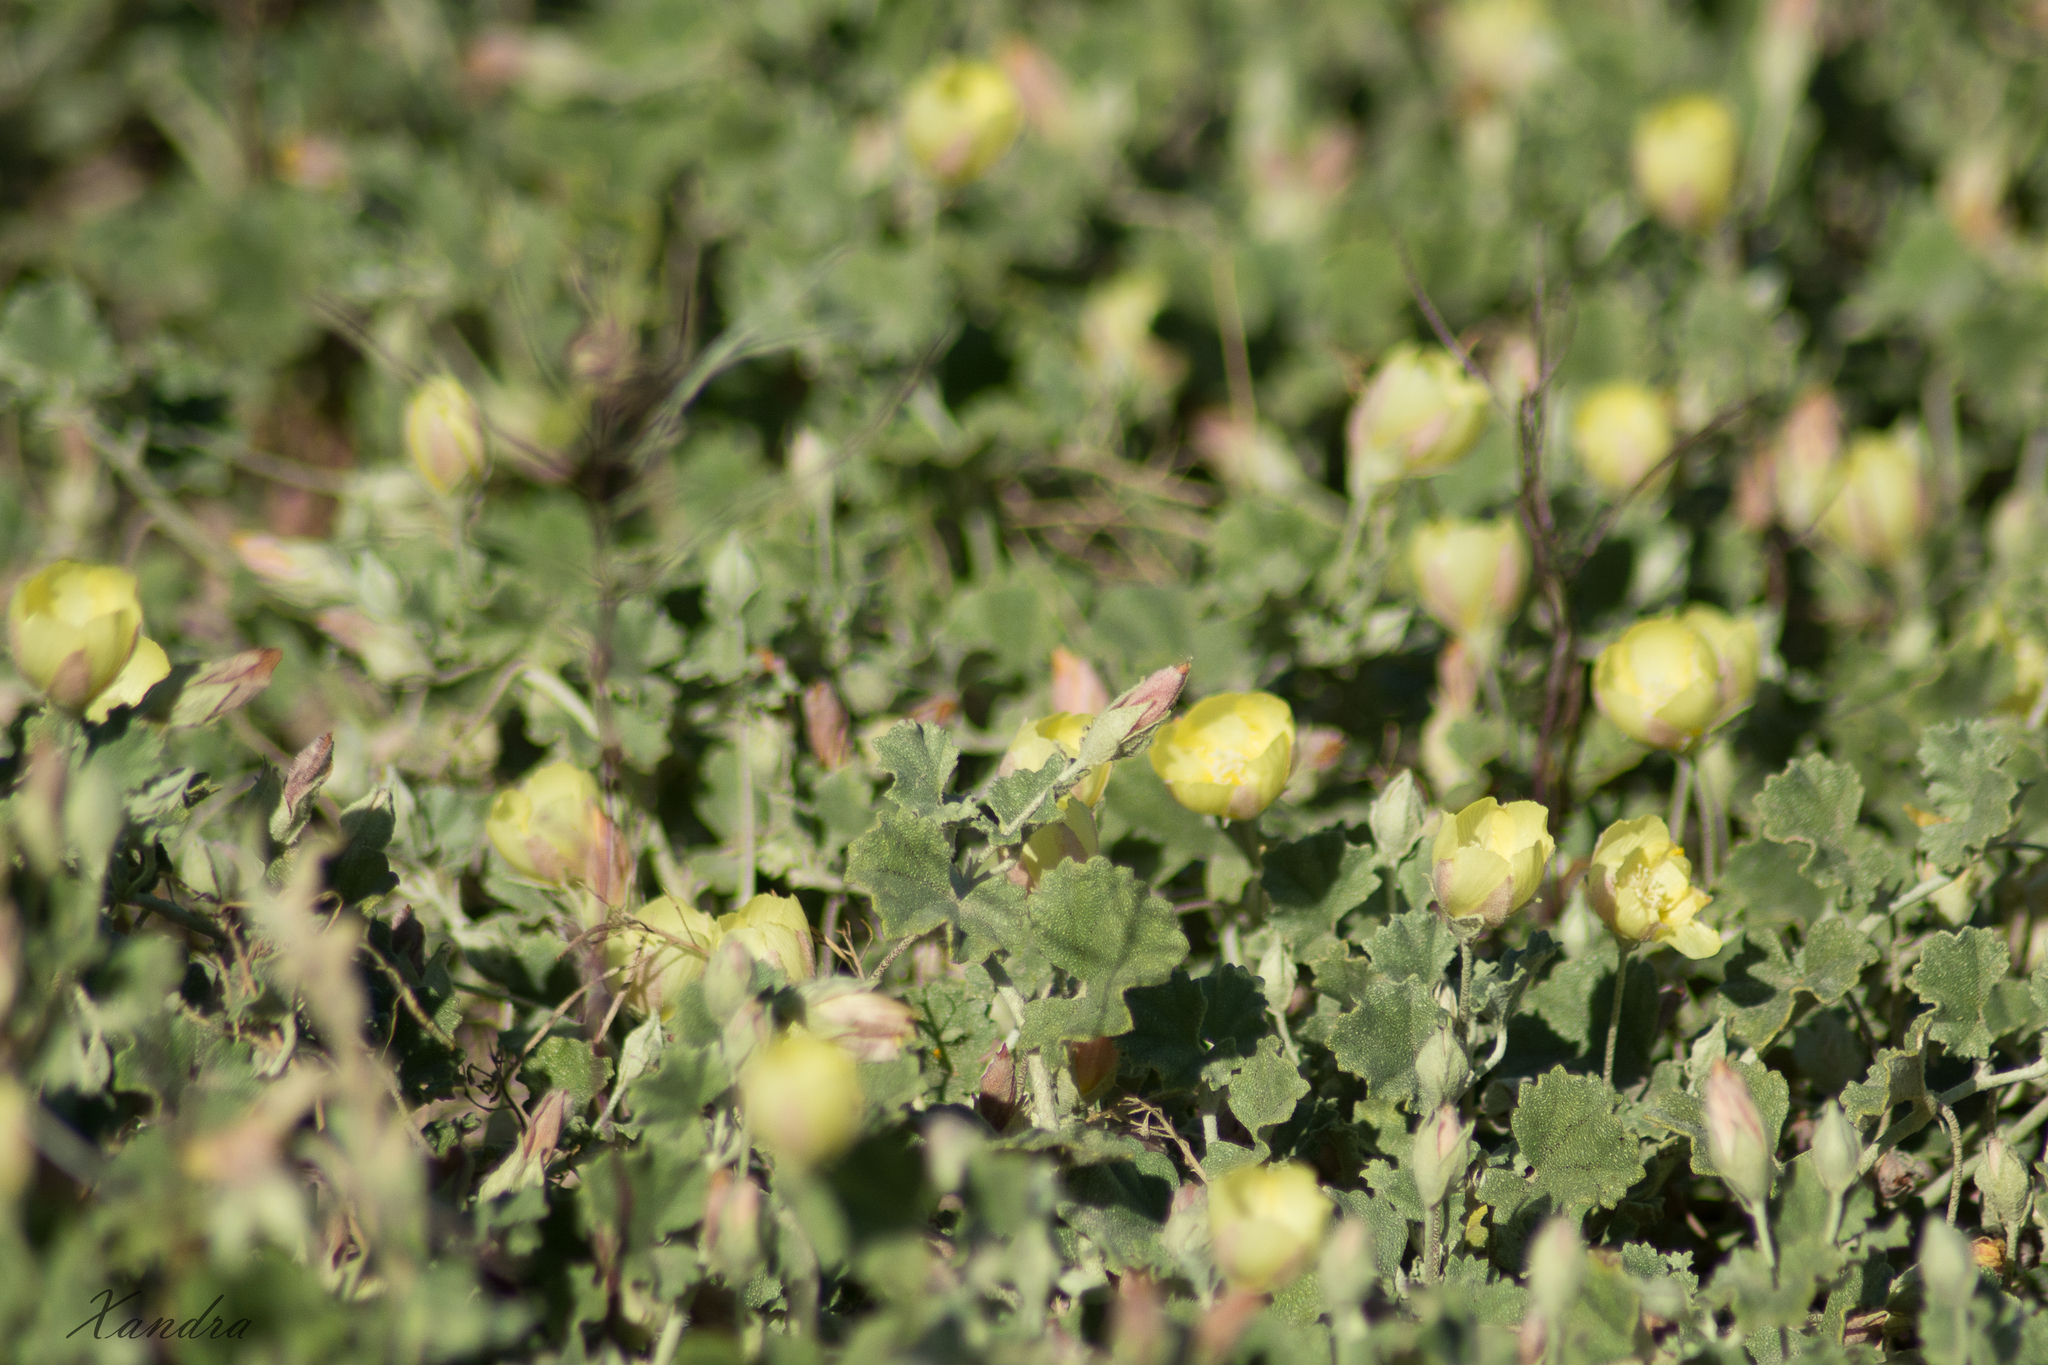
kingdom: Plantae
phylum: Tracheophyta
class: Magnoliopsida
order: Malvales
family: Malvaceae
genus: Malvella
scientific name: Malvella leprosa
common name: Alkali-mallow
